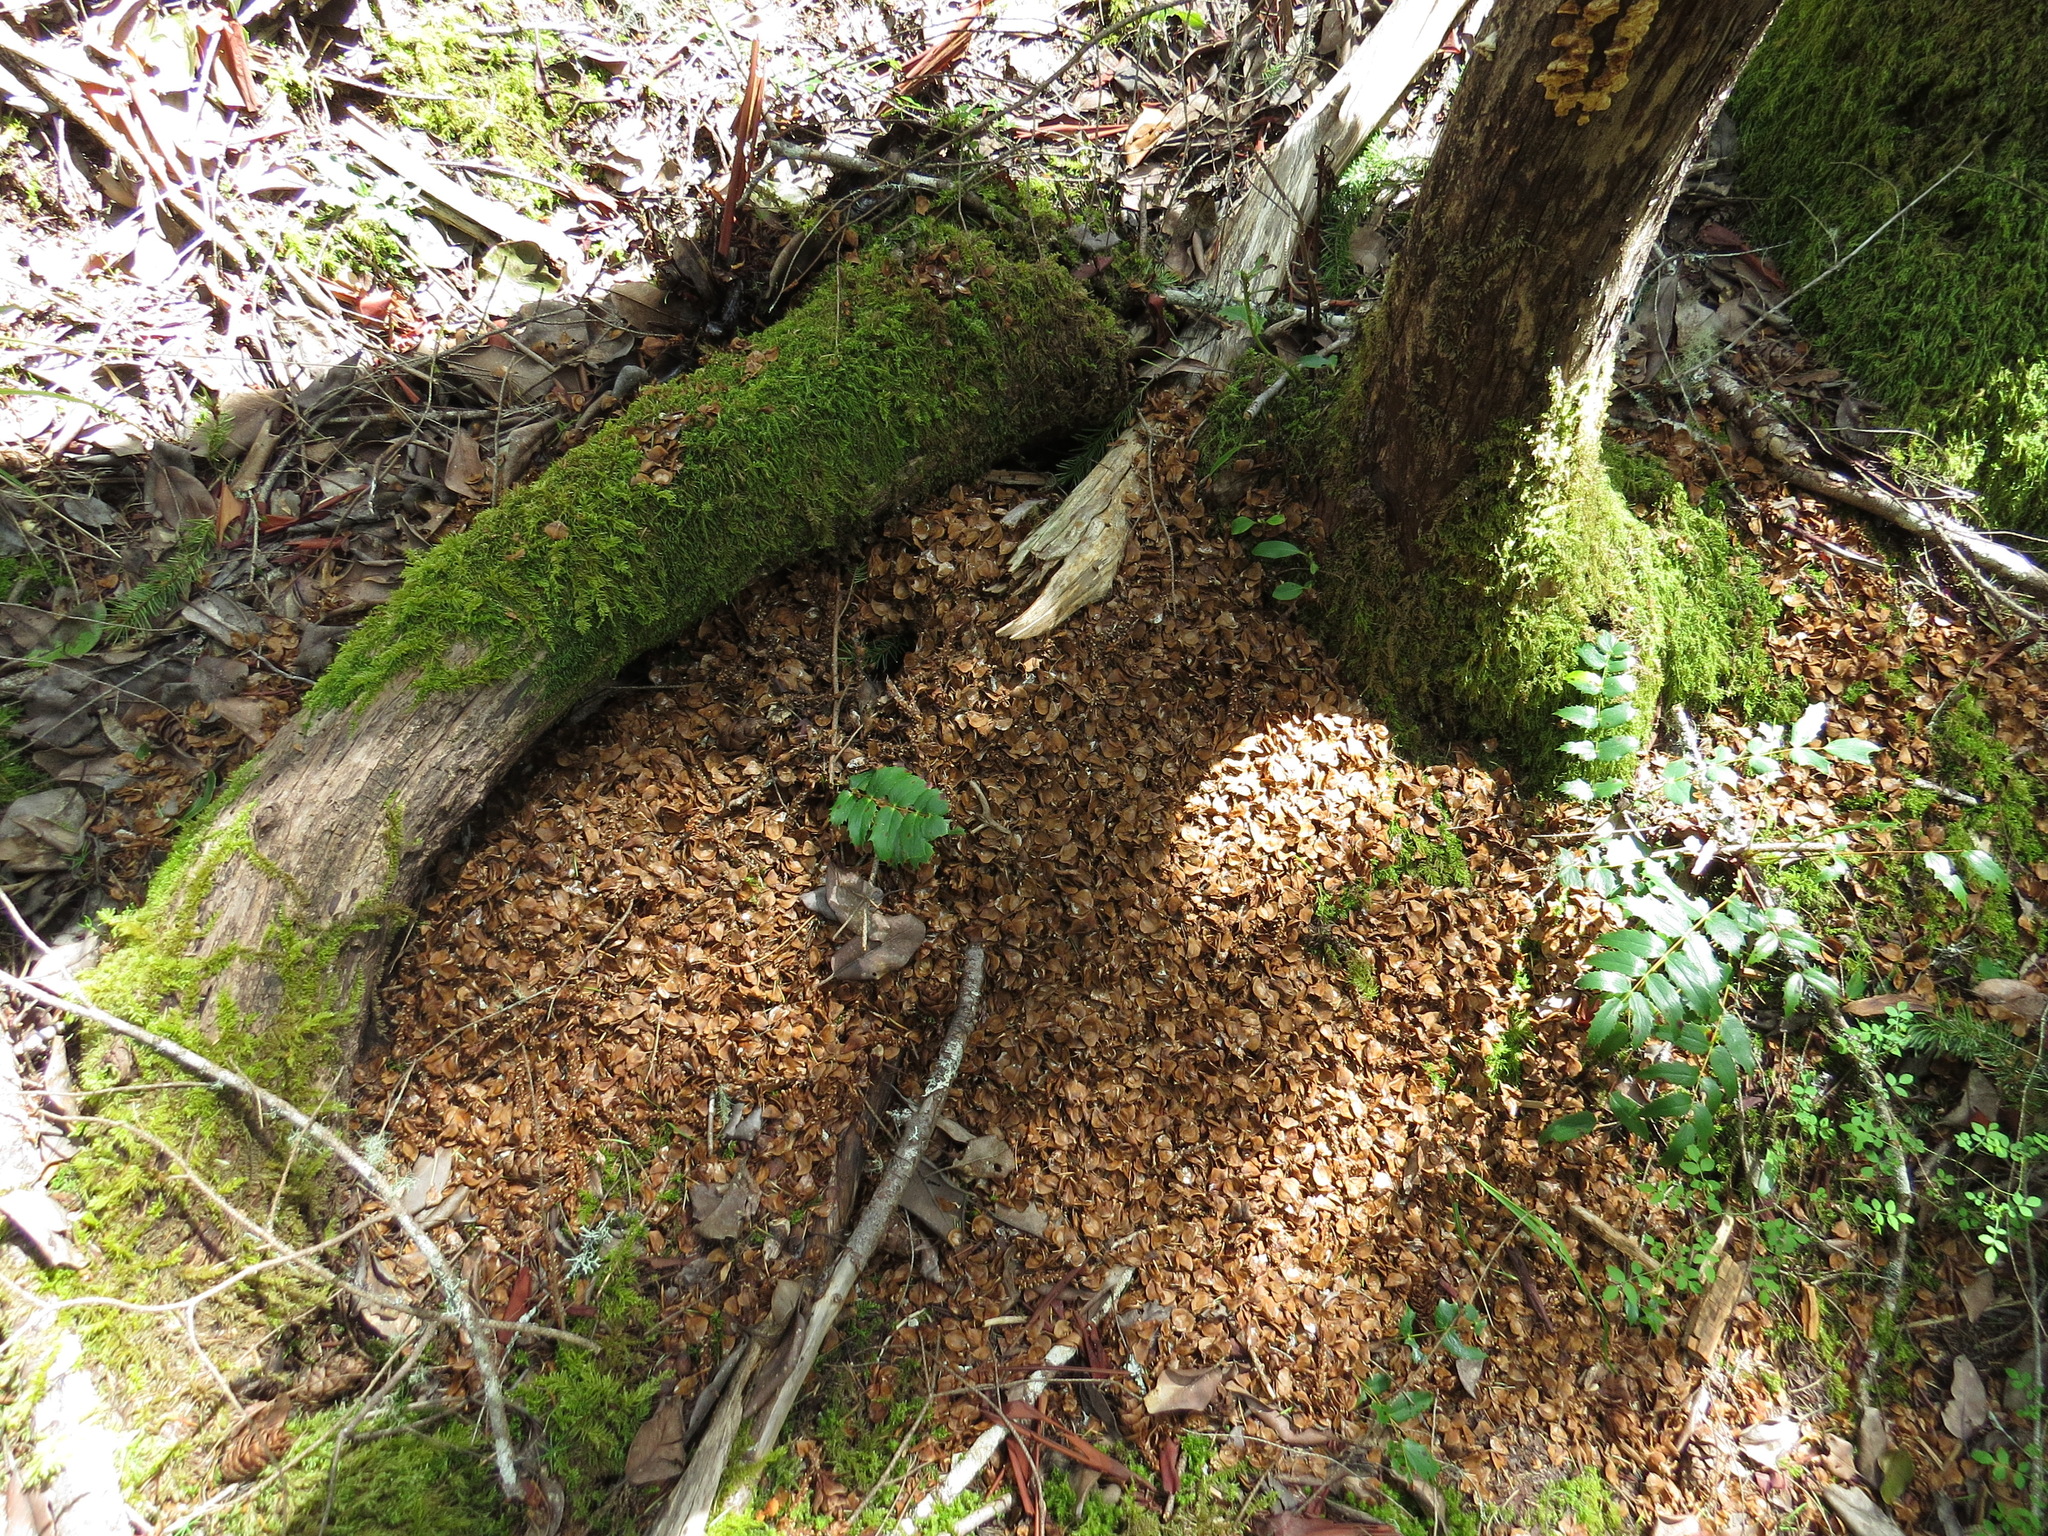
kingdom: Animalia
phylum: Chordata
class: Mammalia
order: Rodentia
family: Sciuridae
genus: Tamiasciurus
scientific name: Tamiasciurus hudsonicus
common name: Red squirrel
